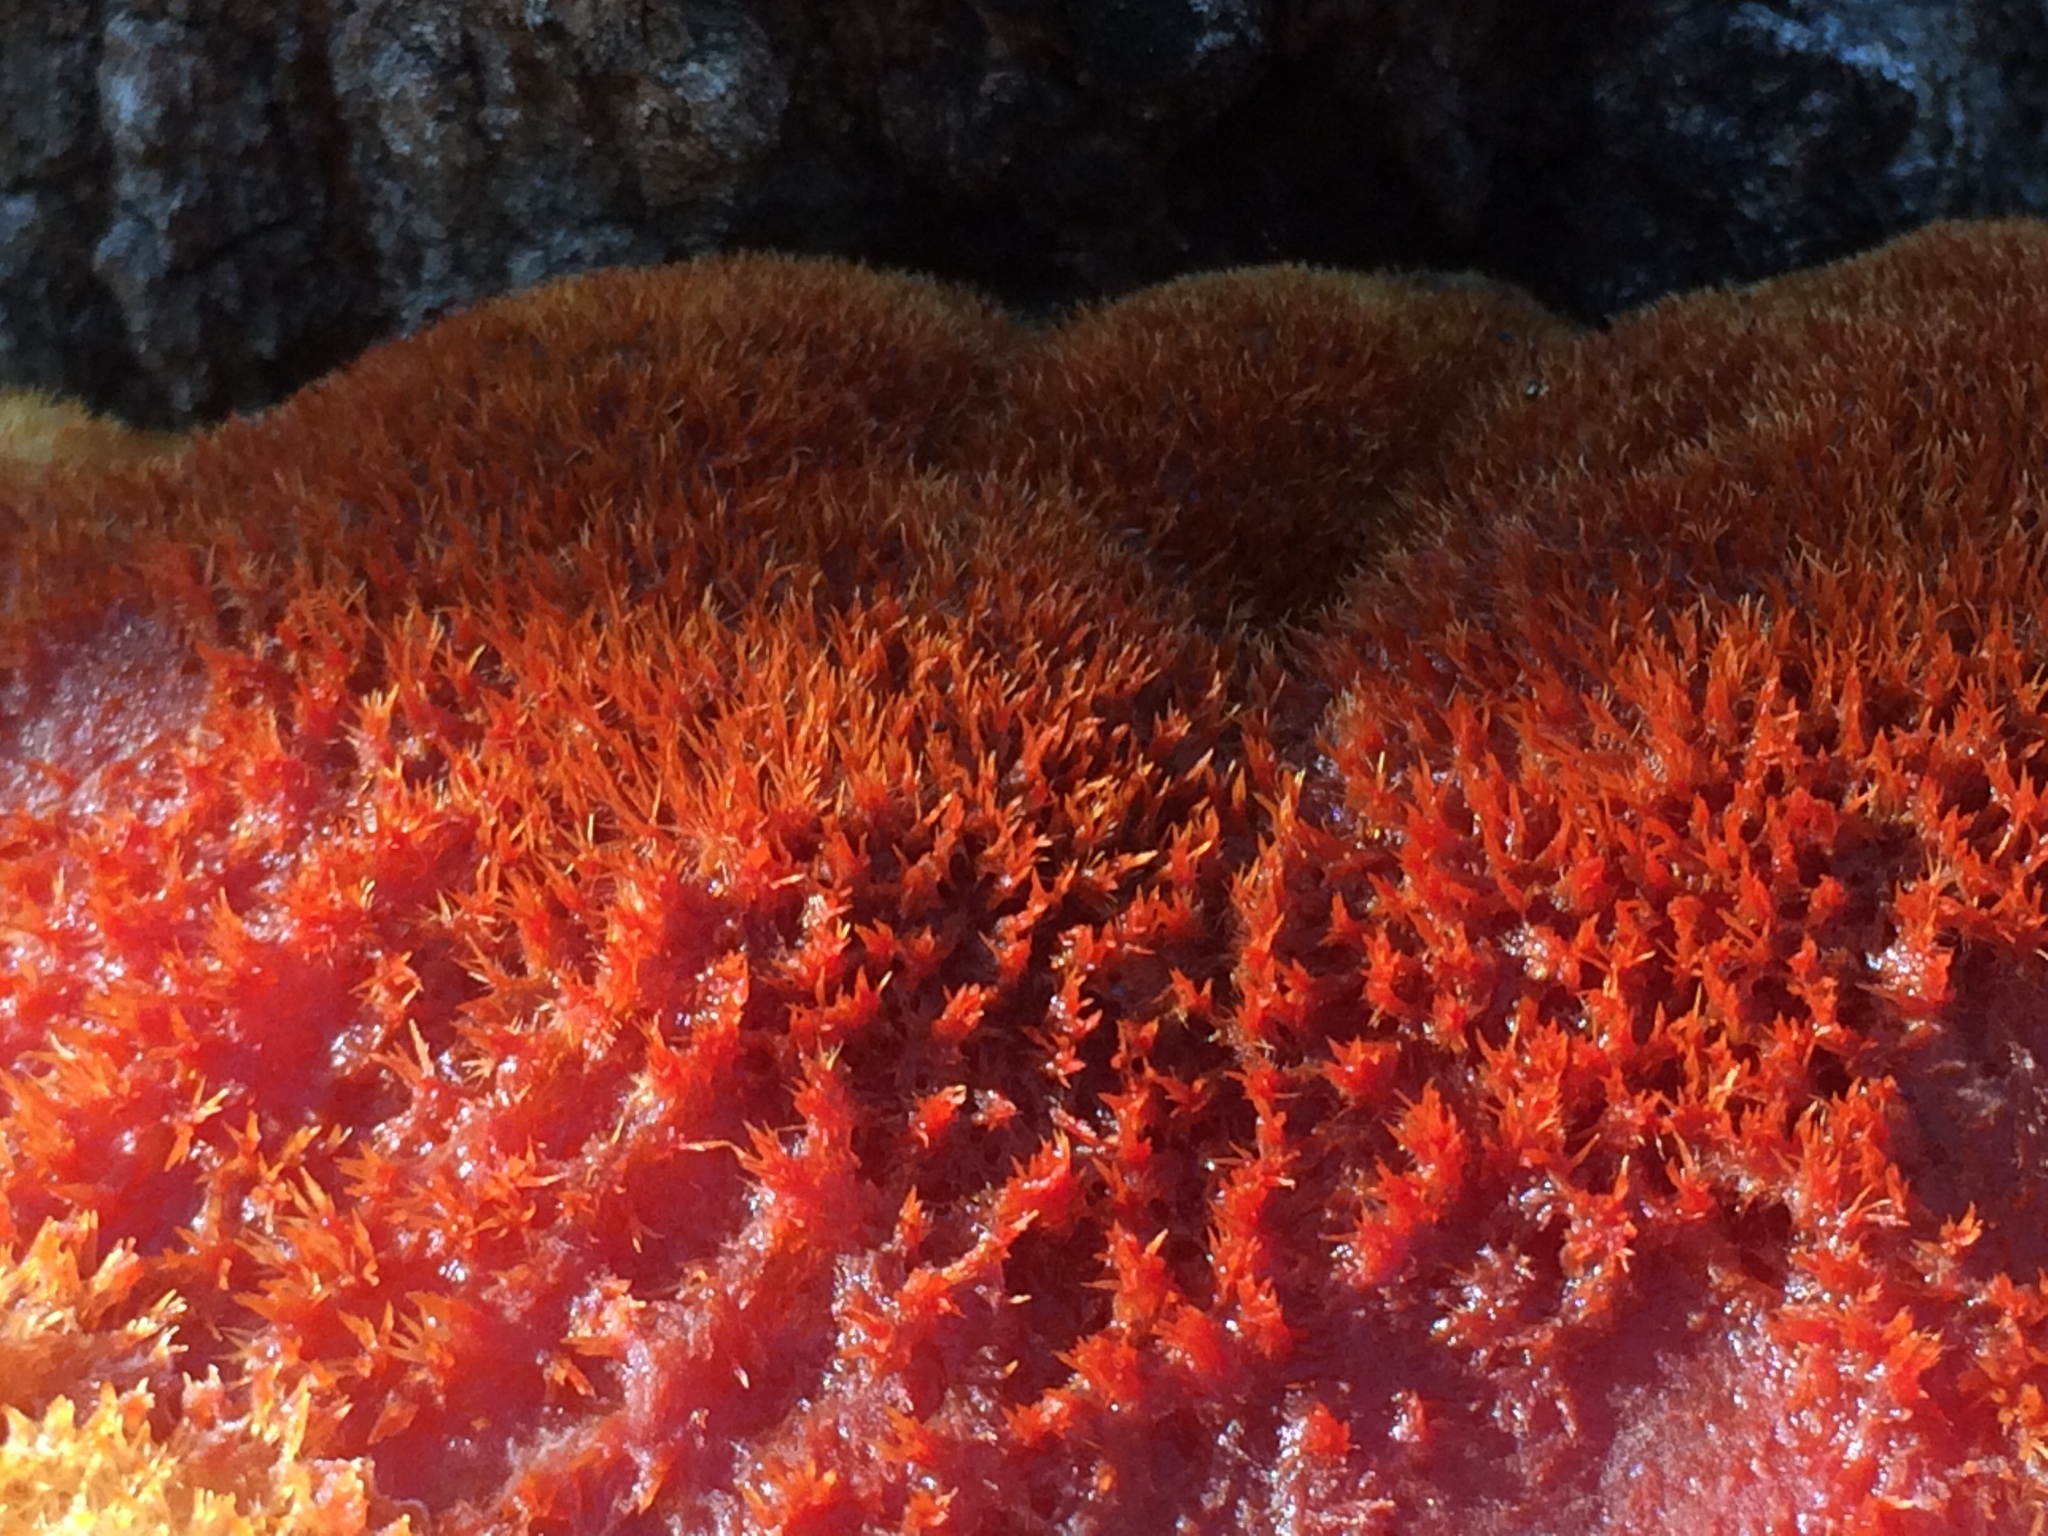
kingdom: Fungi
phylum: Basidiomycota
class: Agaricomycetes
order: Hymenochaetales
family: Hymenochaetaceae
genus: Inonotus
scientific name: Inonotus hispidus
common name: Shaggy bracket
